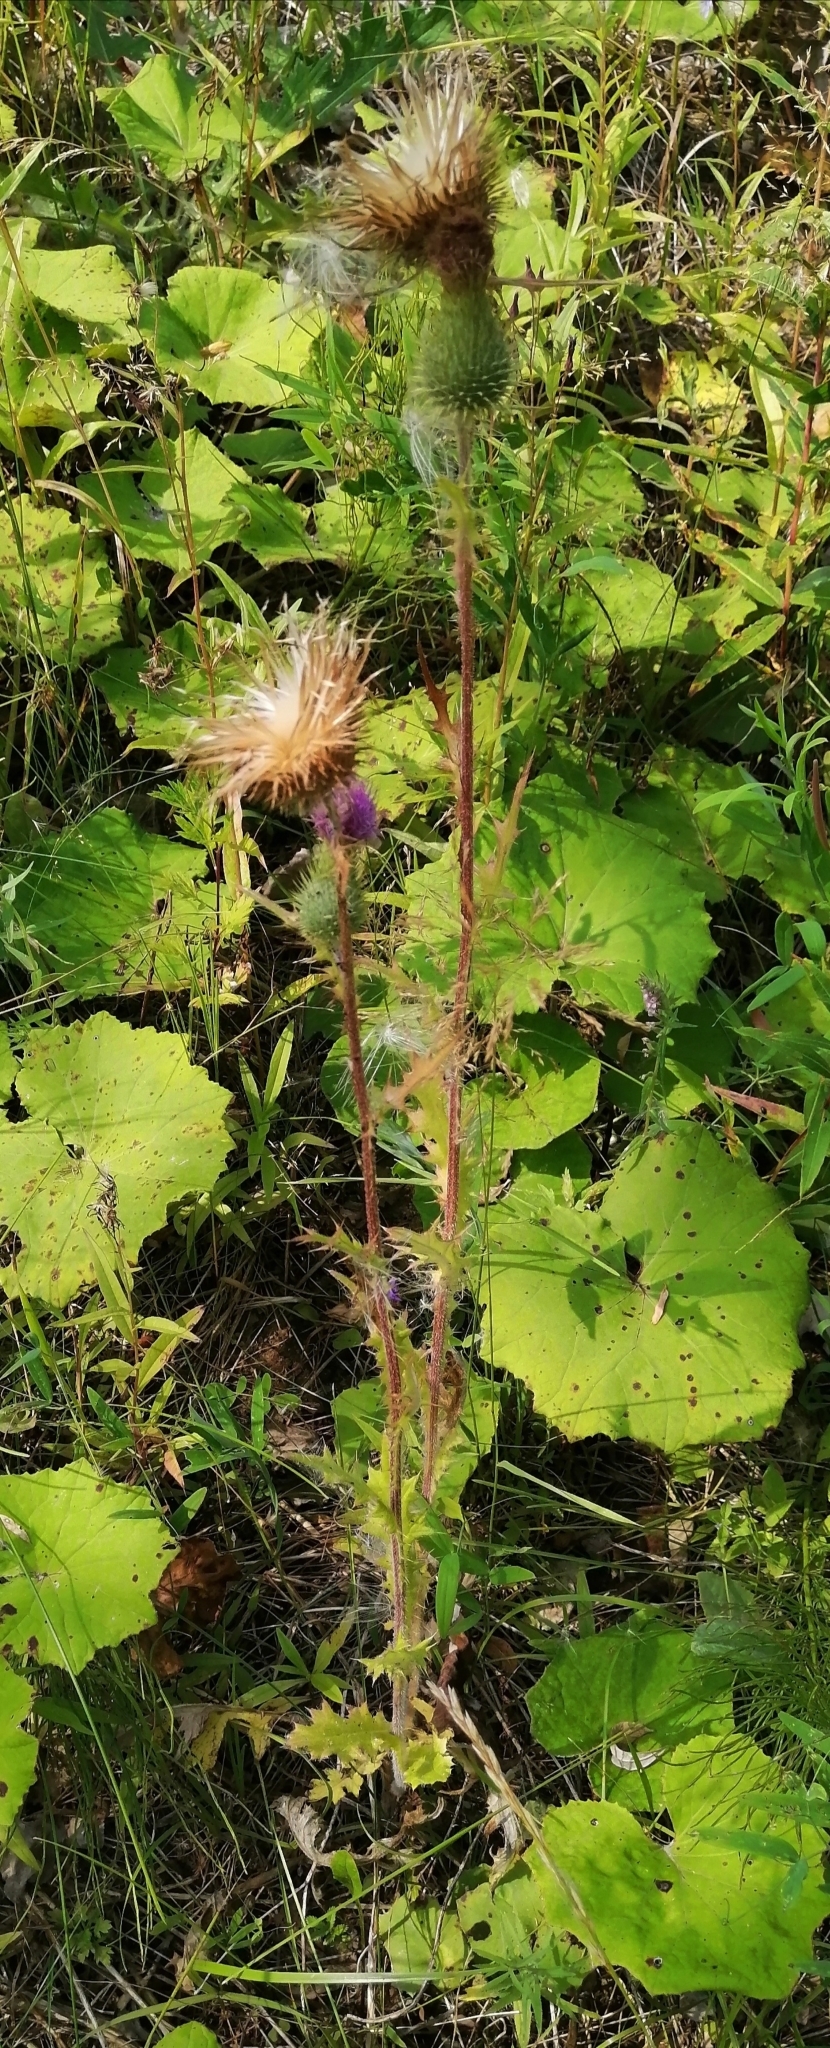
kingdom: Plantae
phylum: Tracheophyta
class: Magnoliopsida
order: Asterales
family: Asteraceae
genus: Cirsium
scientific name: Cirsium vulgare
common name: Bull thistle
